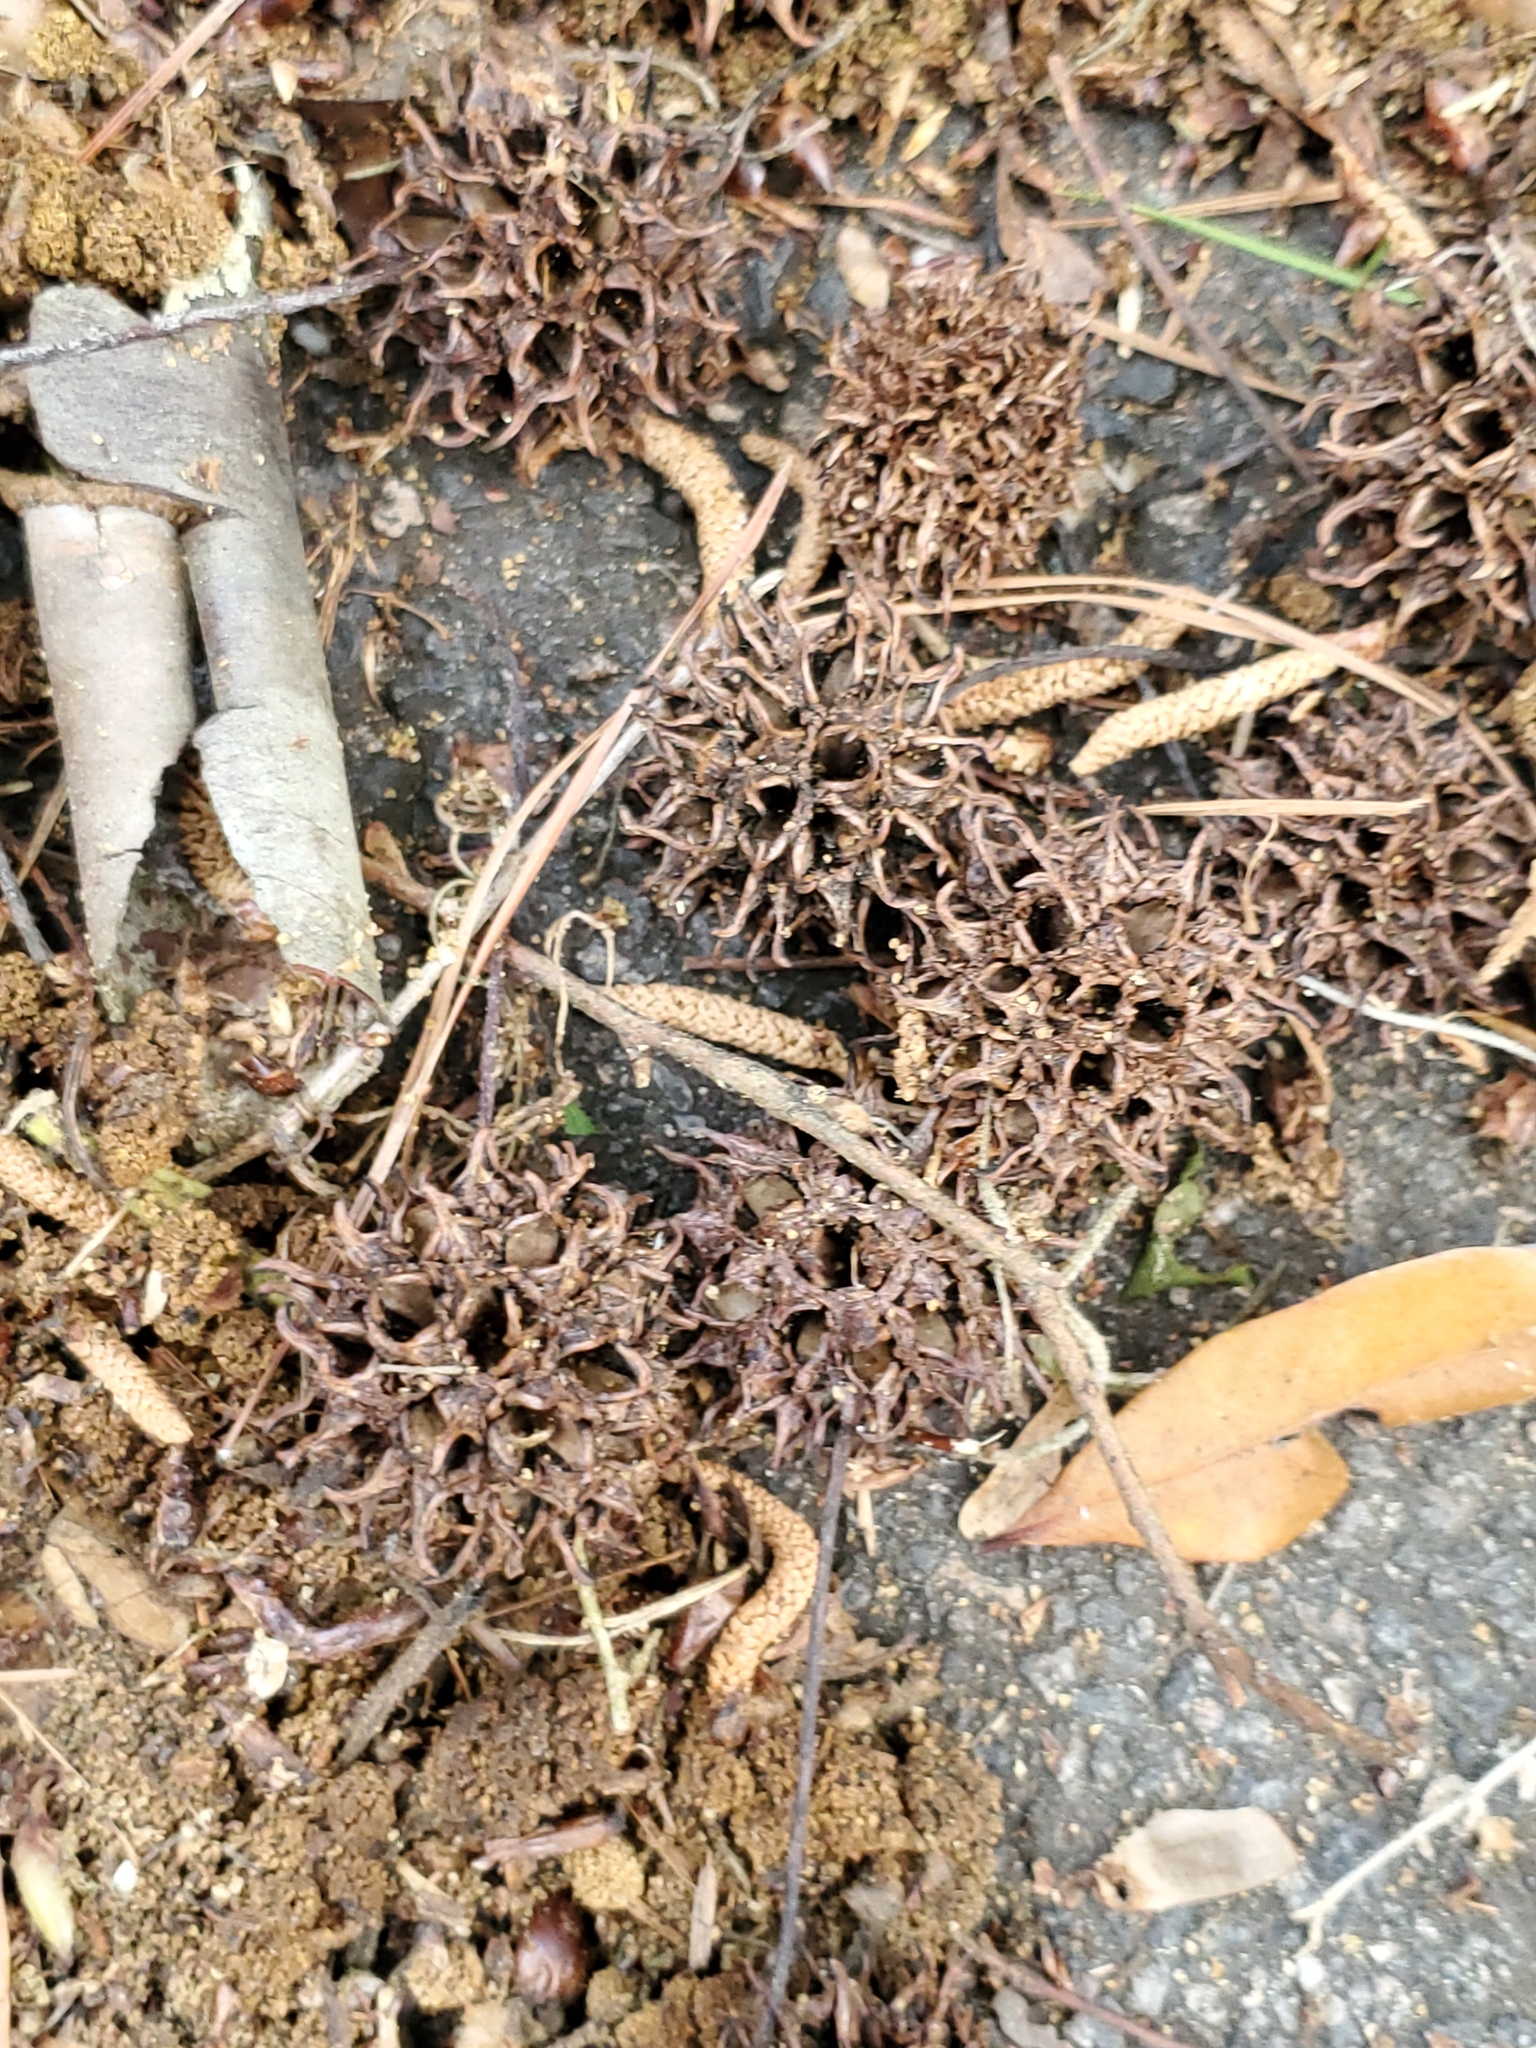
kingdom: Plantae
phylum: Tracheophyta
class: Magnoliopsida
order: Saxifragales
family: Altingiaceae
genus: Liquidambar
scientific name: Liquidambar styraciflua
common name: Sweet gum
